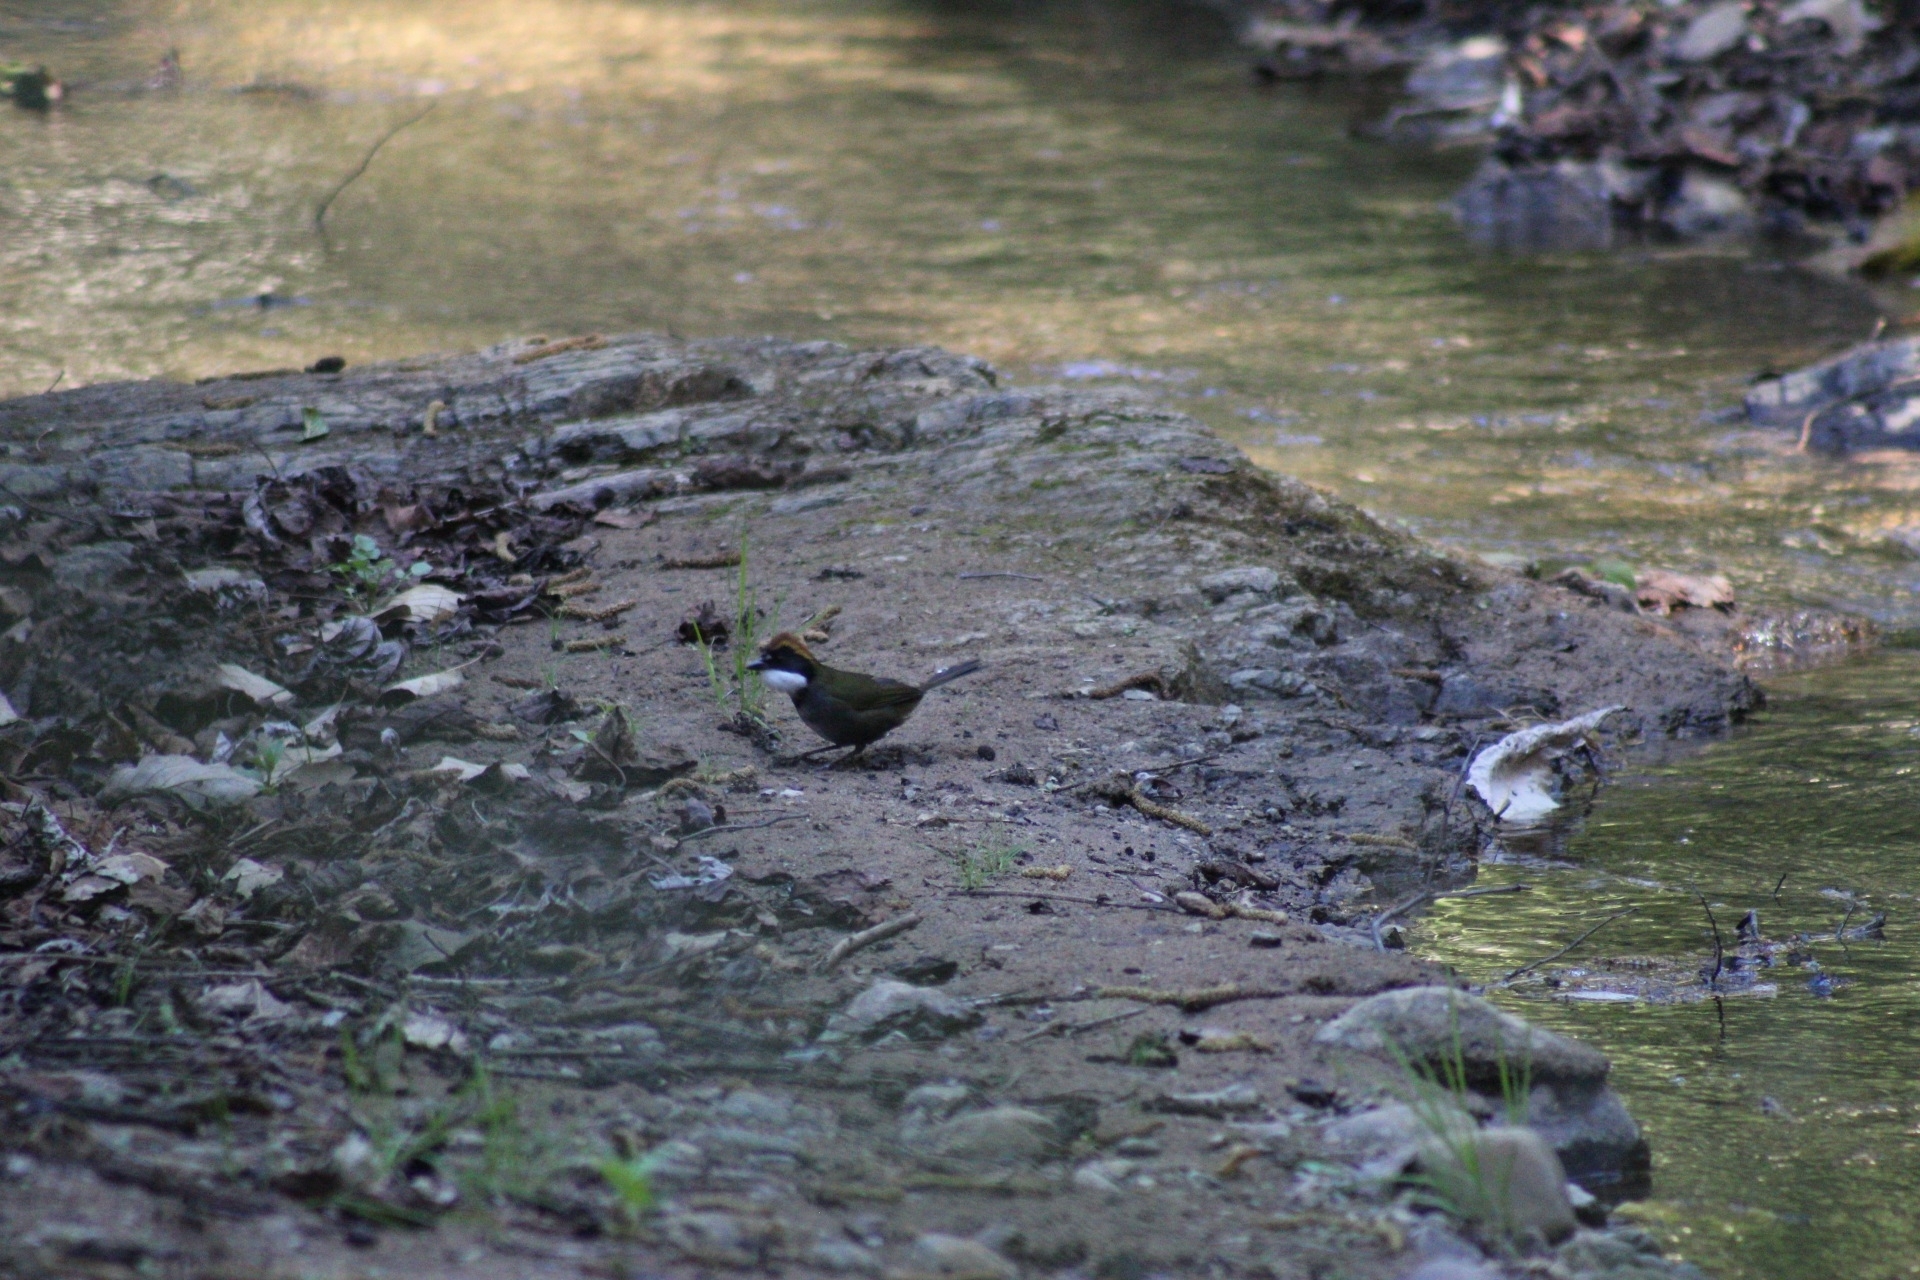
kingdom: Animalia
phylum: Chordata
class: Aves
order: Passeriformes
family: Passerellidae
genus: Arremon
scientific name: Arremon brunneinucha
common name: Chestnut-capped brushfinch
